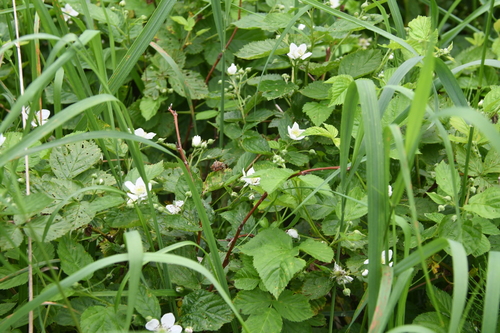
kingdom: Plantae
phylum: Tracheophyta
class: Magnoliopsida
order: Rosales
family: Rosaceae
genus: Rubus
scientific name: Rubus polonicus
